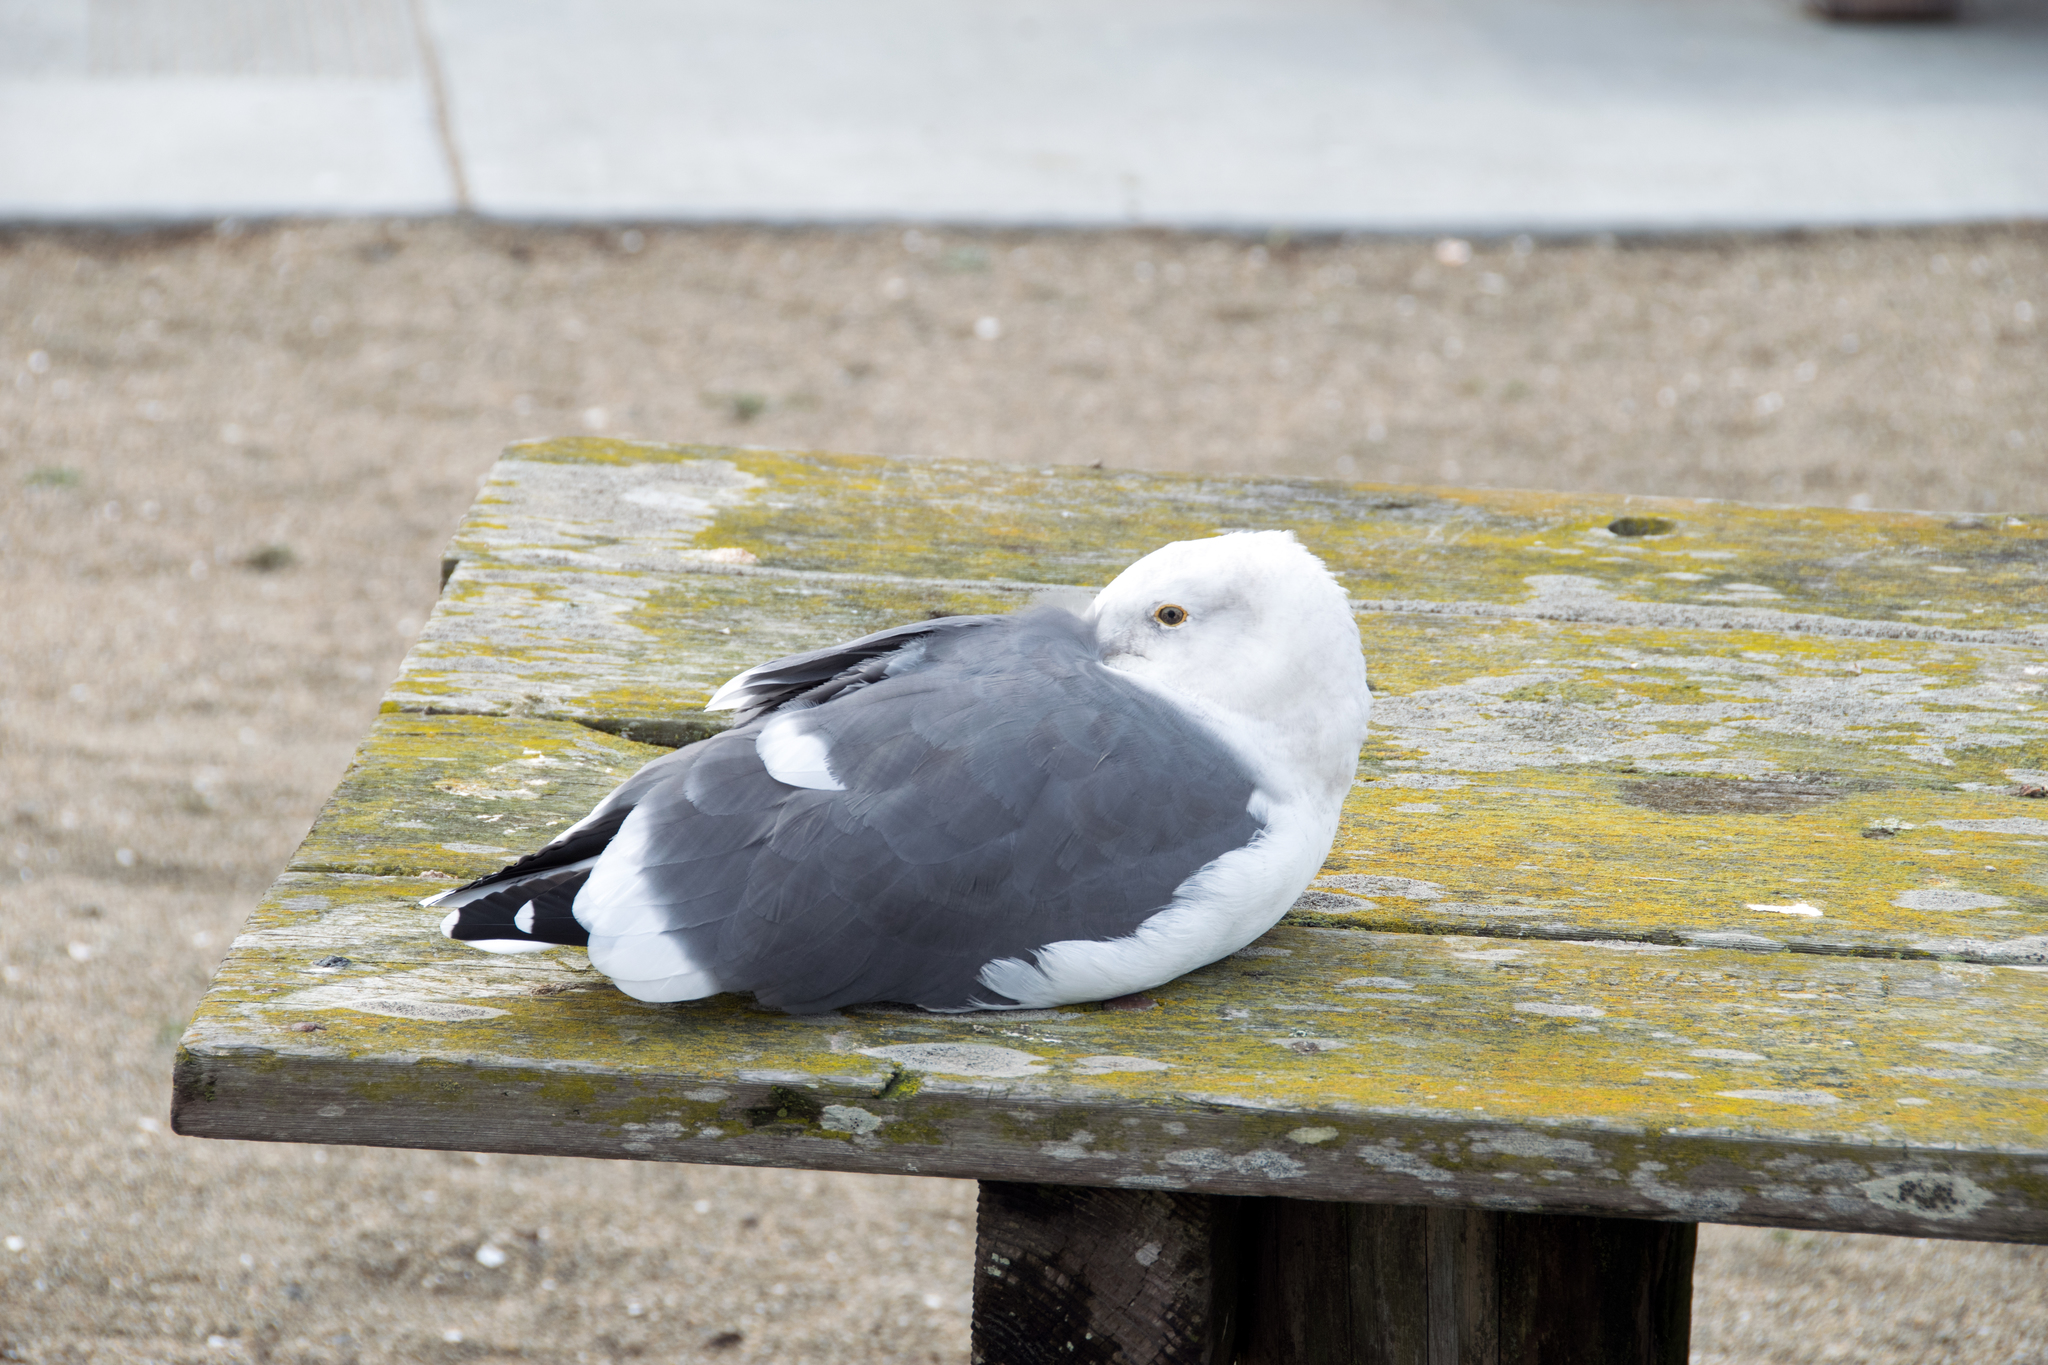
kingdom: Animalia
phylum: Chordata
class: Aves
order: Charadriiformes
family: Laridae
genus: Larus
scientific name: Larus occidentalis
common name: Western gull
